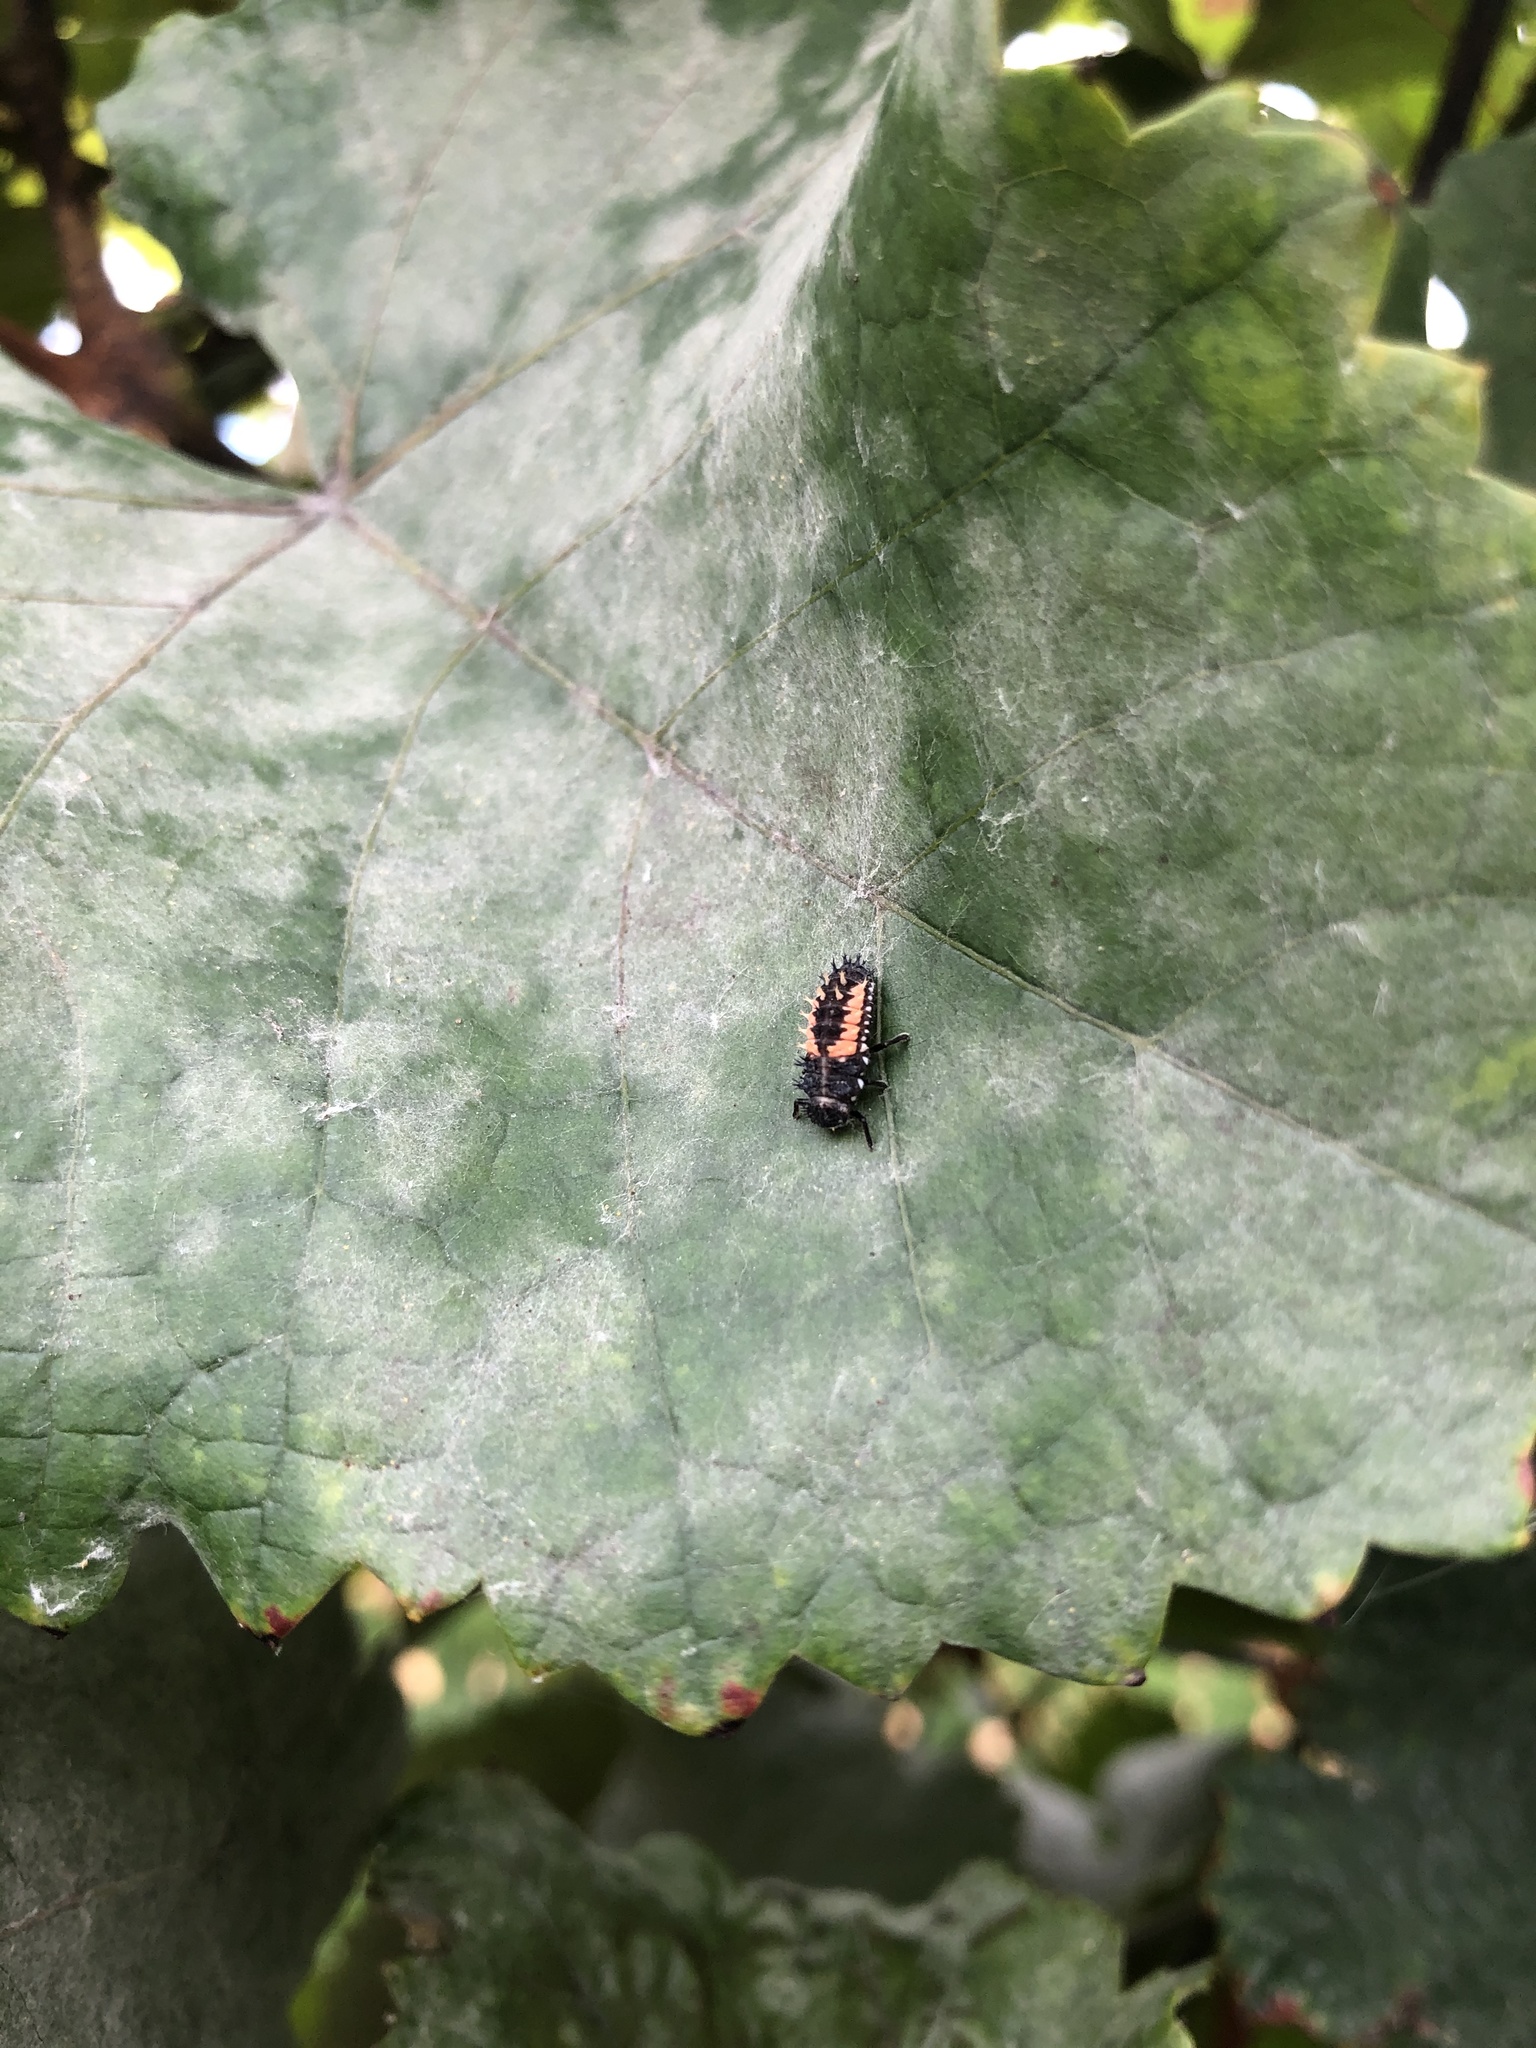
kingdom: Animalia
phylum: Arthropoda
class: Insecta
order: Coleoptera
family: Coccinellidae
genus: Harmonia
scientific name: Harmonia axyridis
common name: Harlequin ladybird
